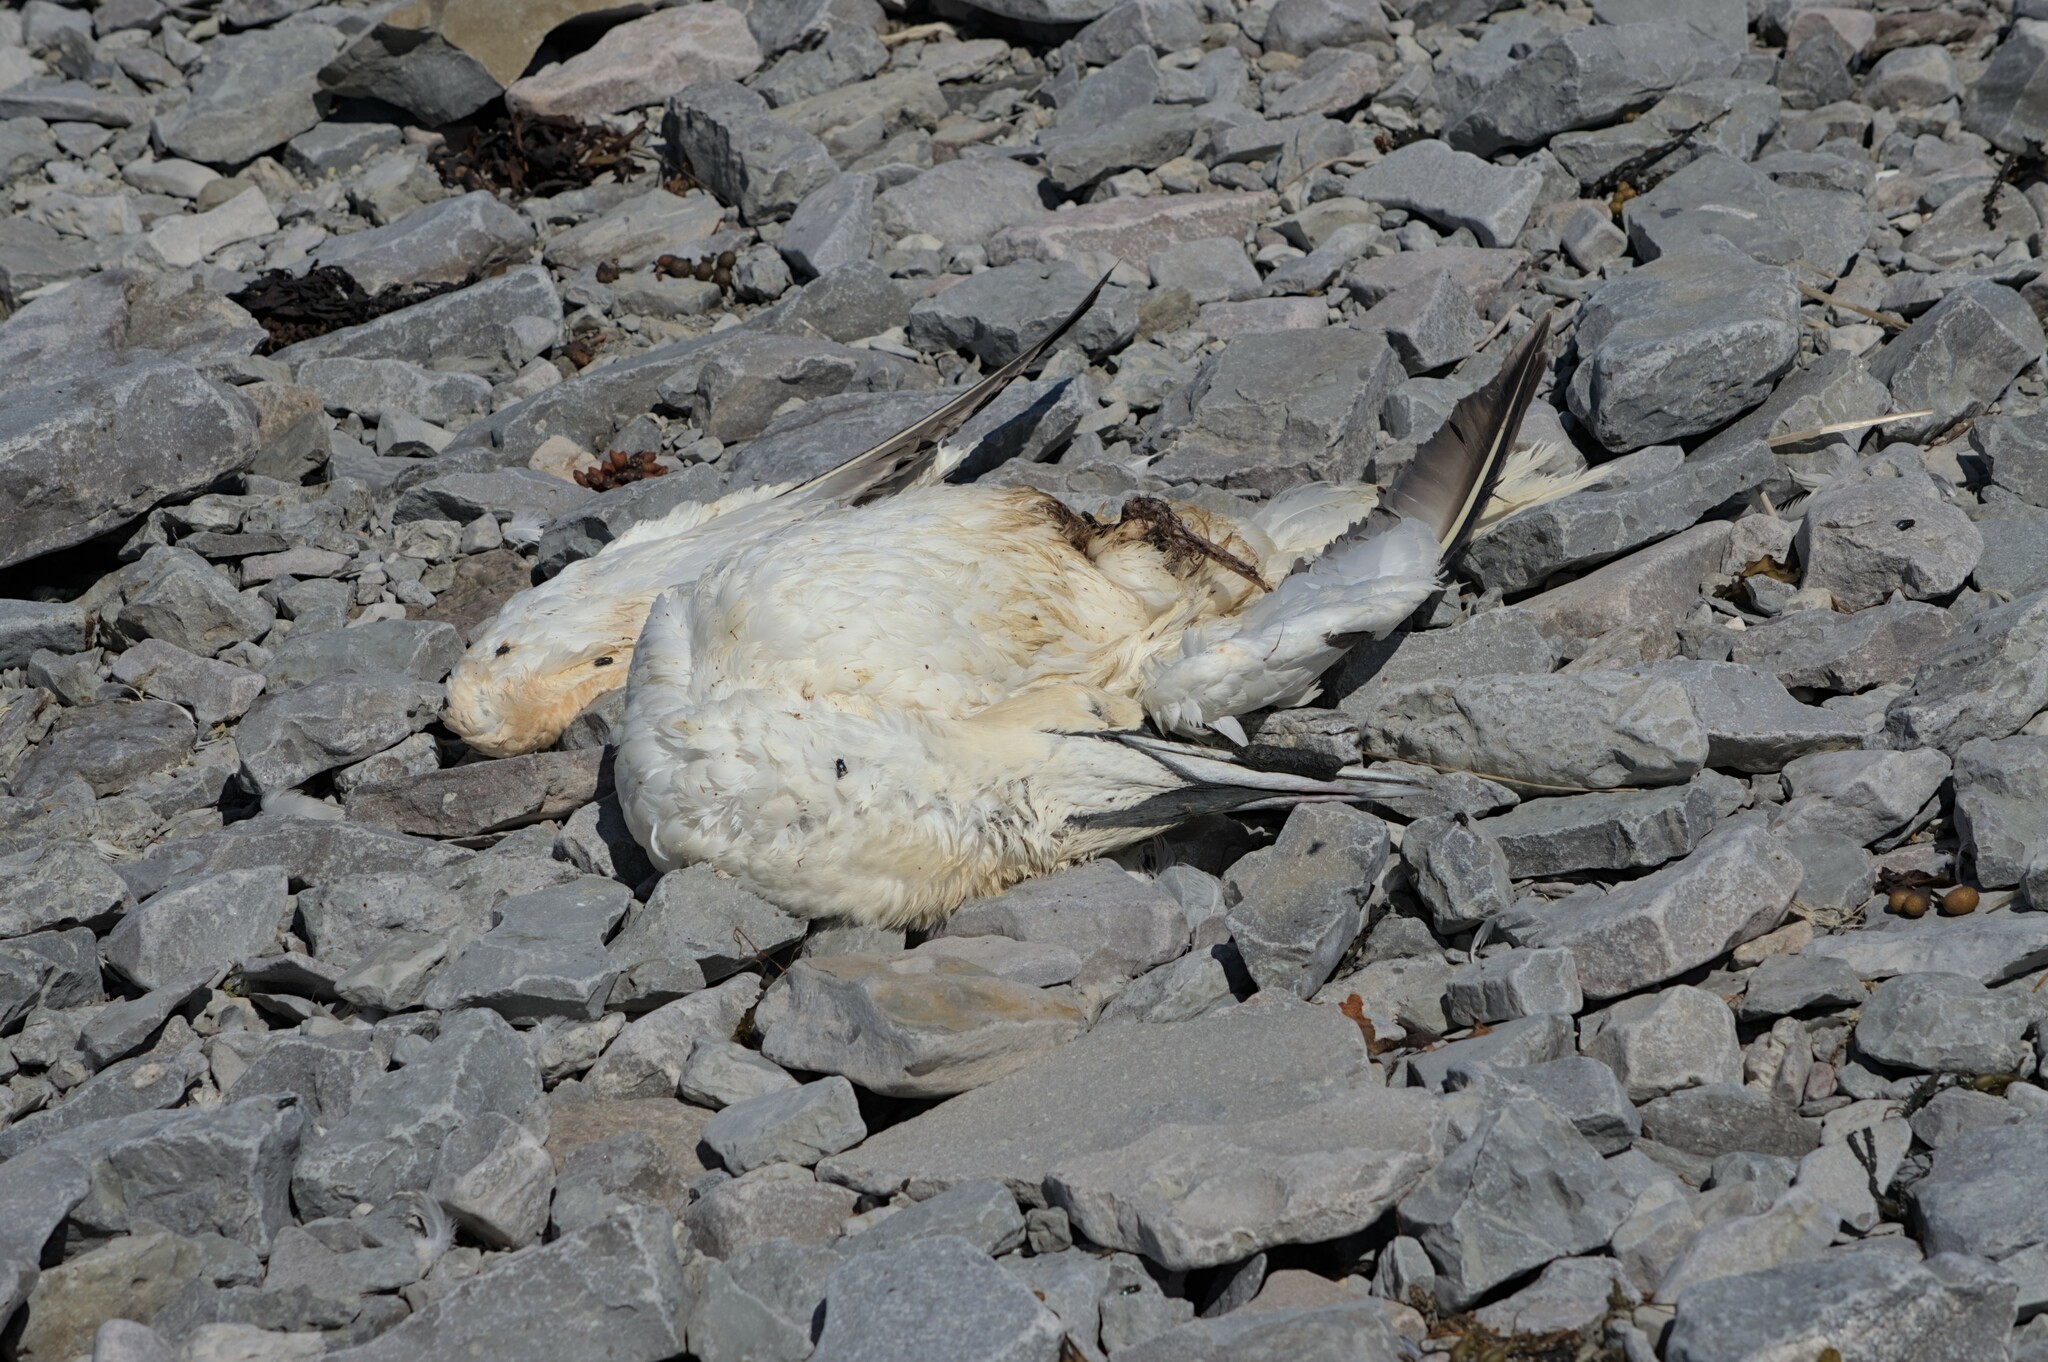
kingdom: Animalia
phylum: Chordata
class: Aves
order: Suliformes
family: Sulidae
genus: Morus
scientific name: Morus bassanus
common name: Northern gannet
